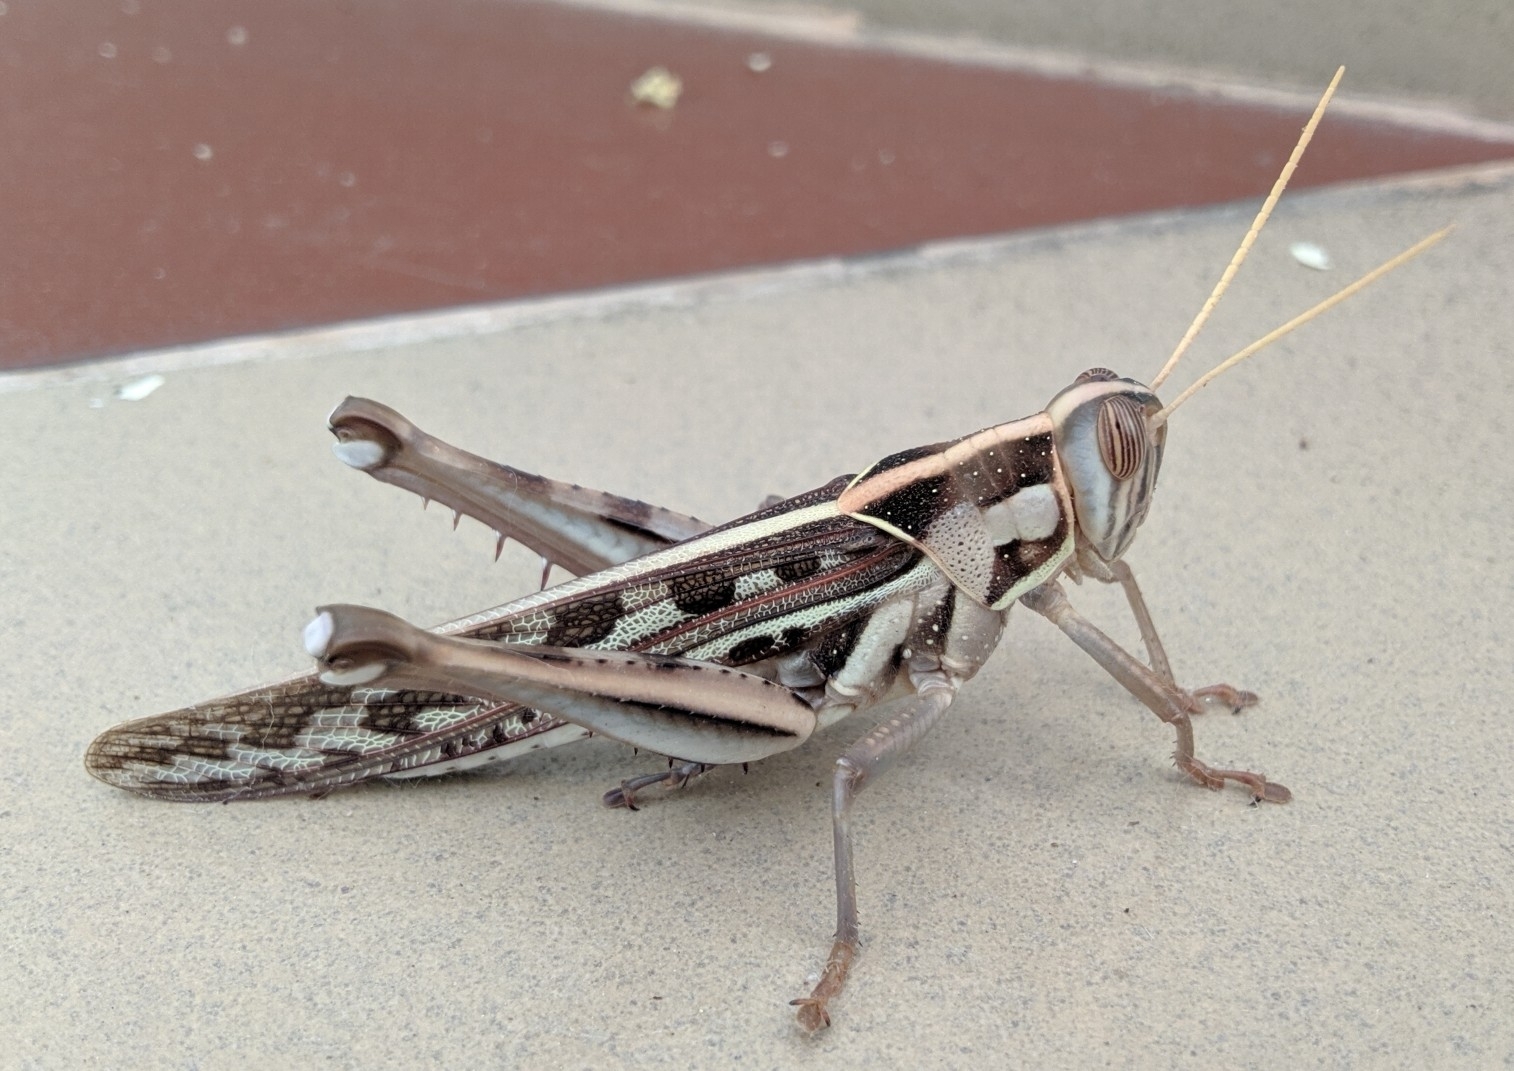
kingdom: Animalia
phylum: Arthropoda
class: Insecta
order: Orthoptera
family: Acrididae
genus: Cyrtacanthacris
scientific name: Cyrtacanthacris tatarica
